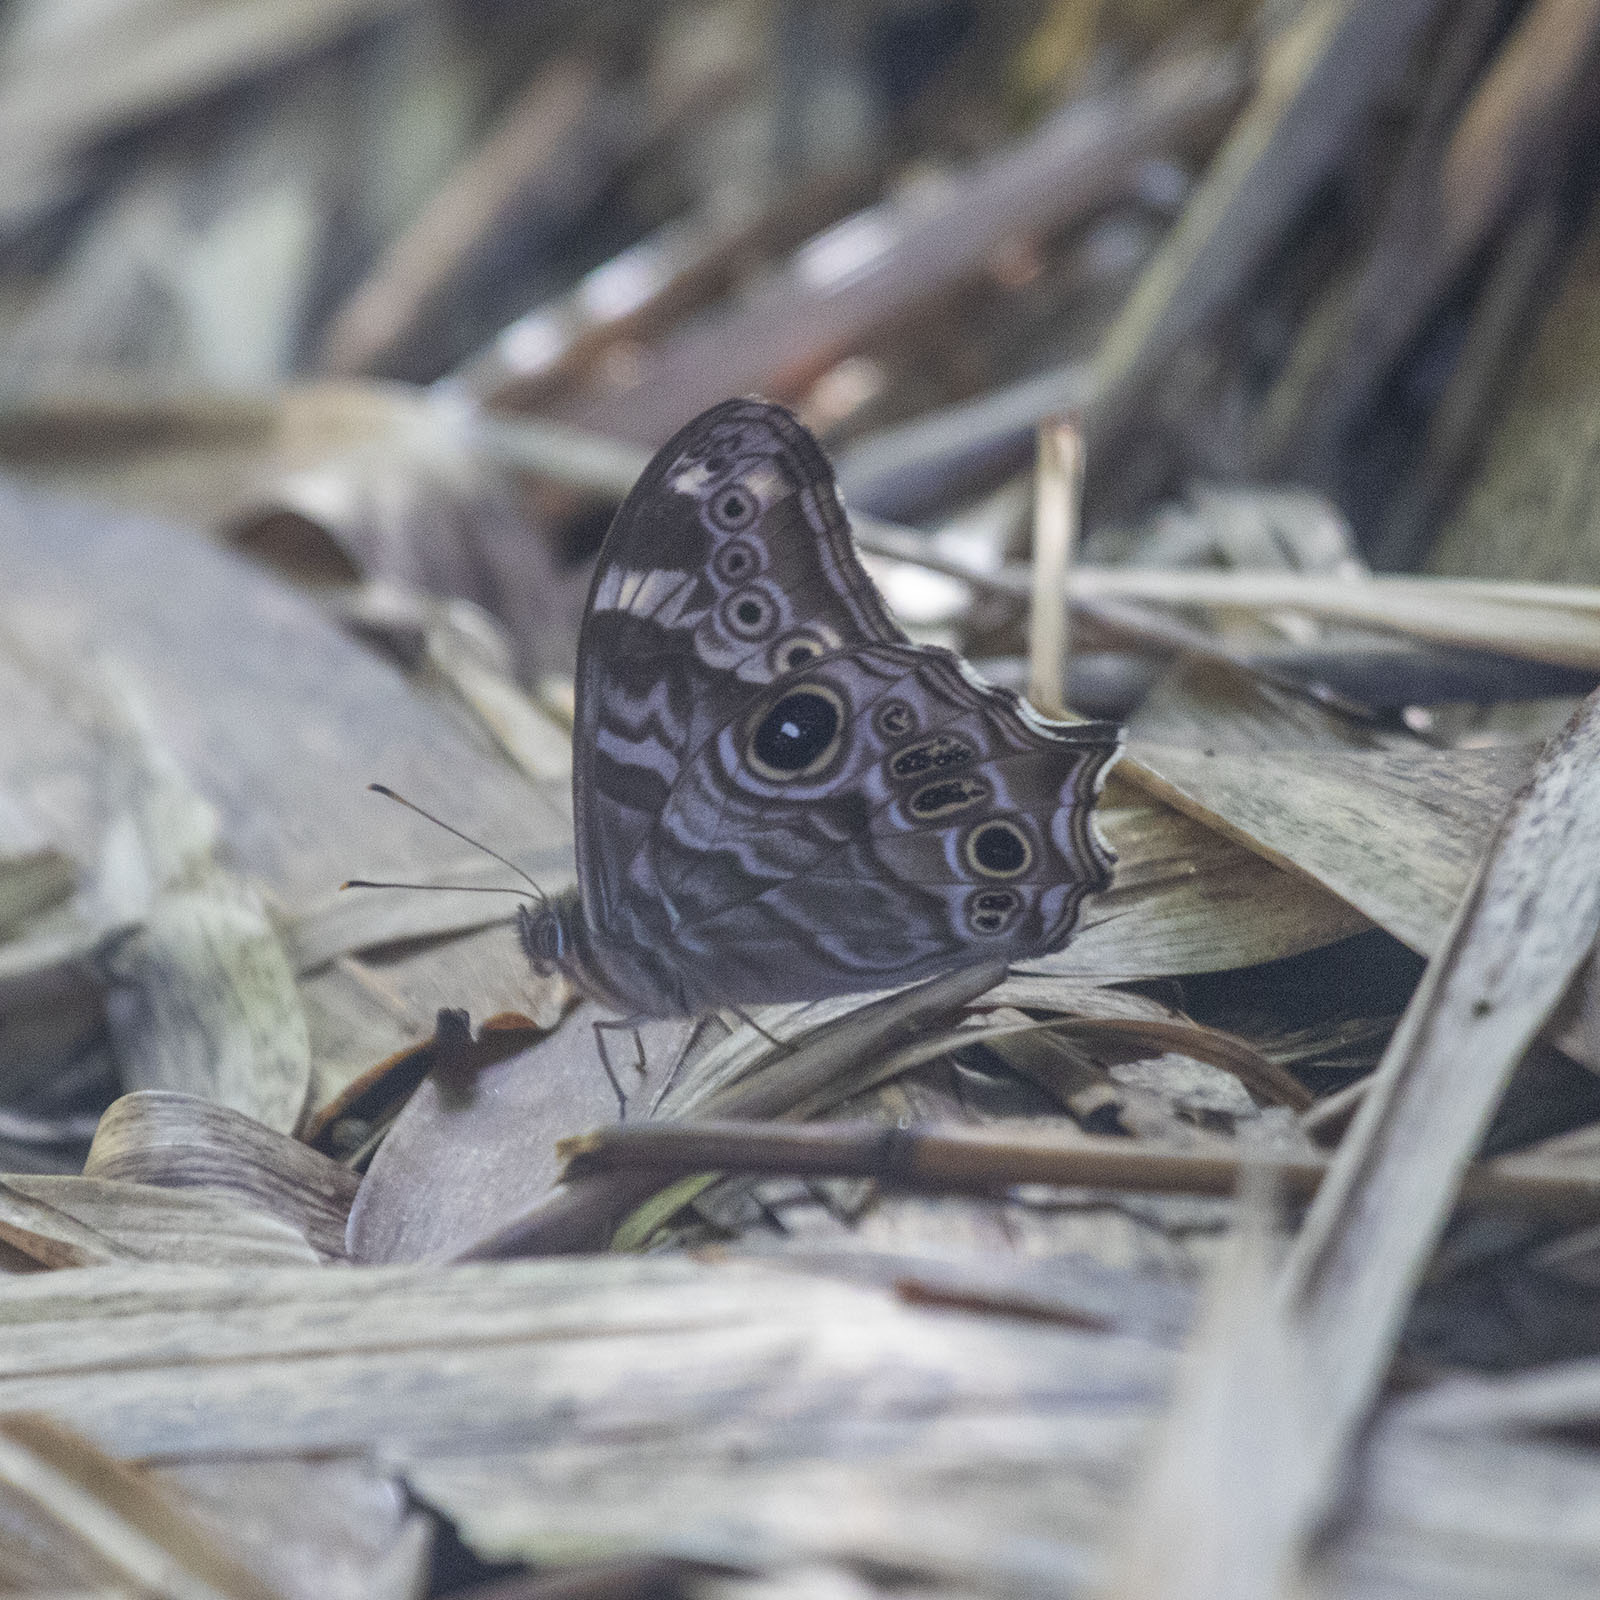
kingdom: Animalia
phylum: Arthropoda
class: Insecta
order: Lepidoptera
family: Nymphalidae
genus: Lethe
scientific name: Lethe rohria
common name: Common treebrown
